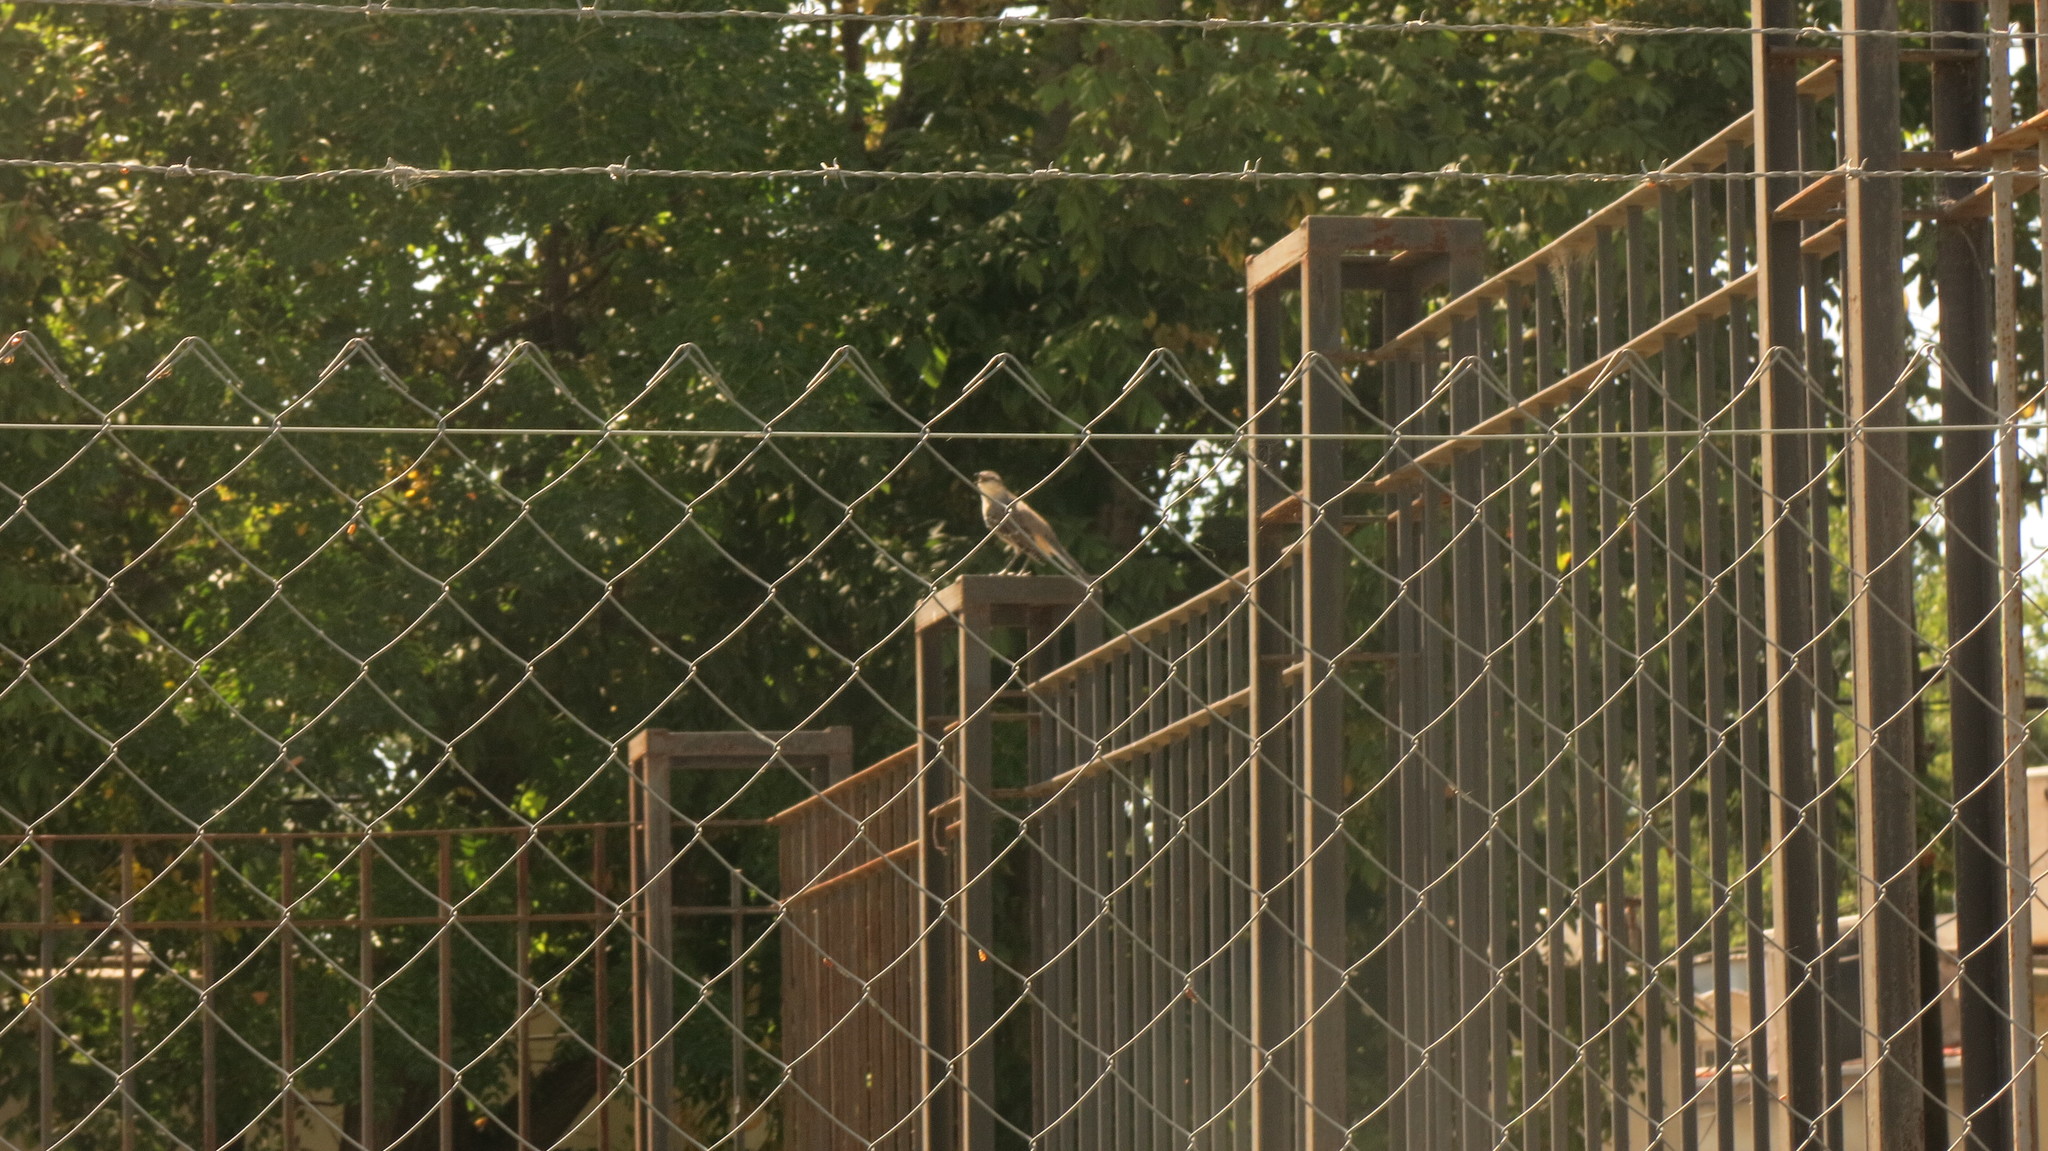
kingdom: Animalia
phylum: Chordata
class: Aves
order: Passeriformes
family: Mimidae
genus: Mimus
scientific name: Mimus saturninus
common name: Chalk-browed mockingbird
